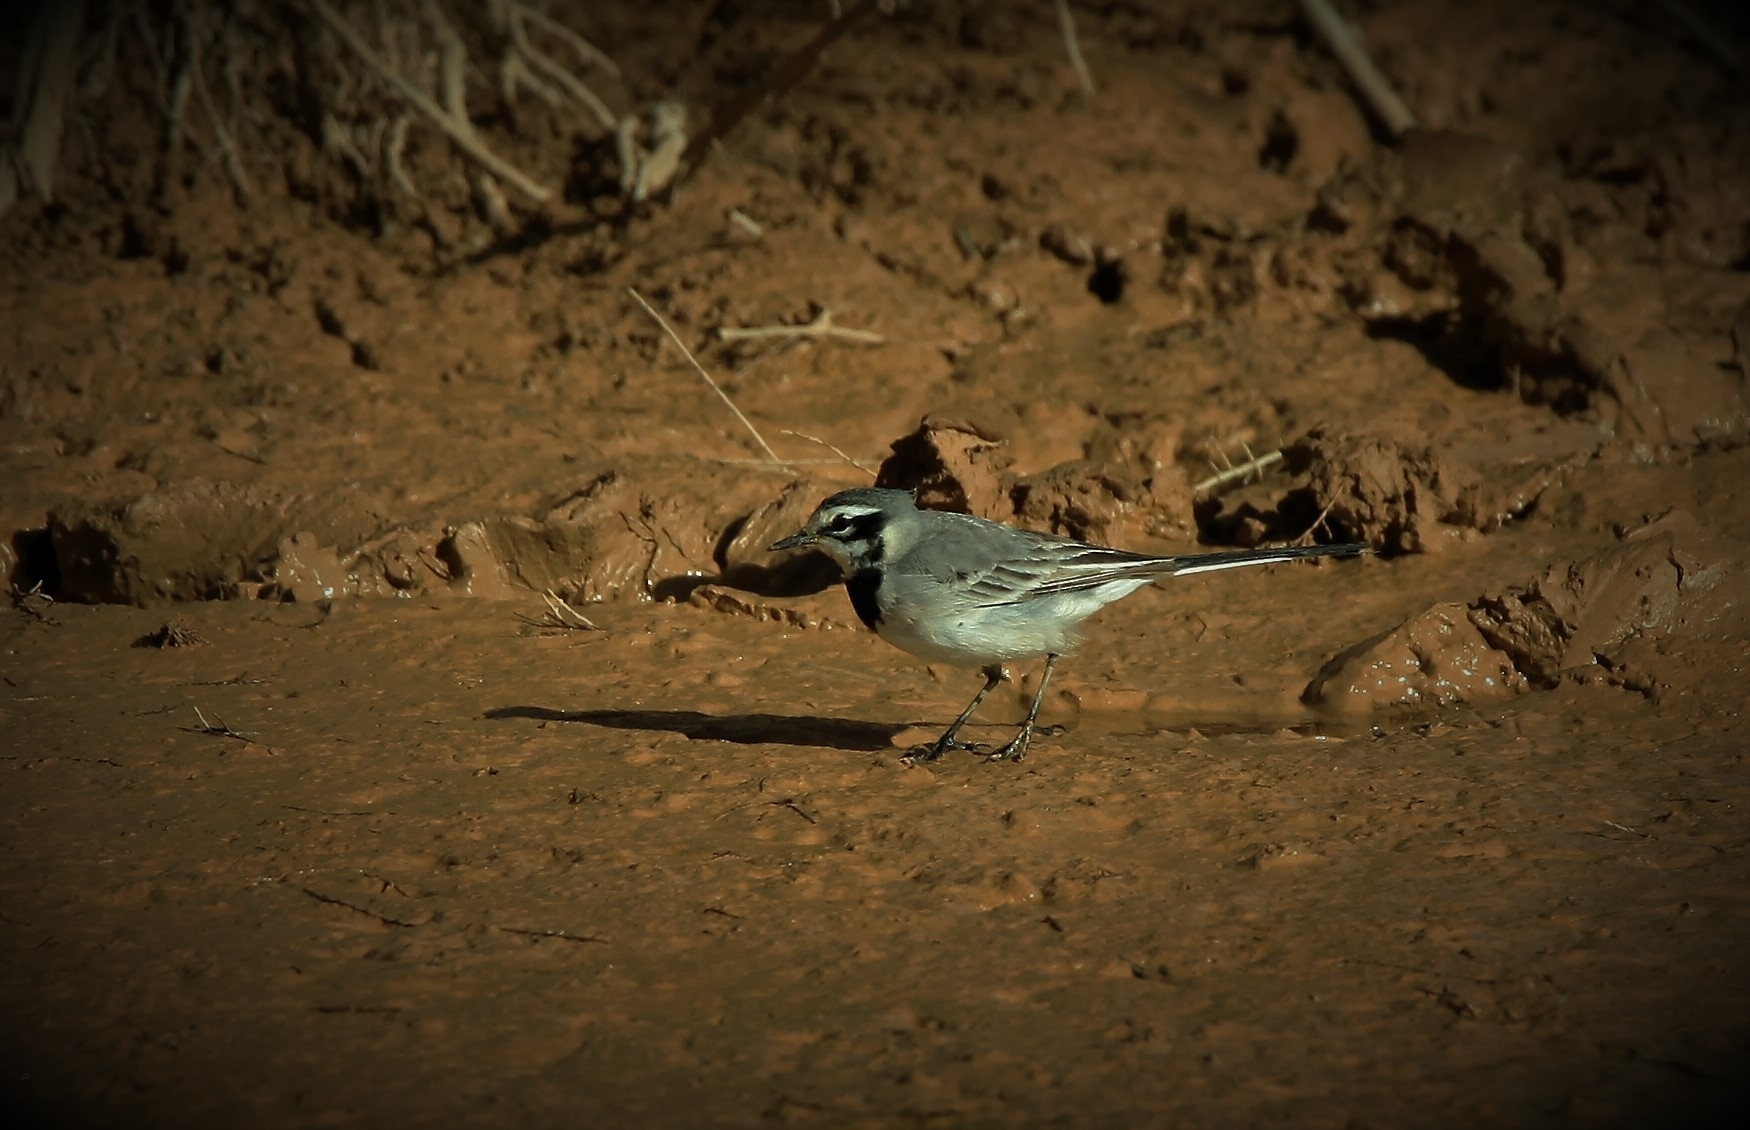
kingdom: Animalia
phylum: Chordata
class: Aves
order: Passeriformes
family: Motacillidae
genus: Motacilla
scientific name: Motacilla alba
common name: White wagtail
